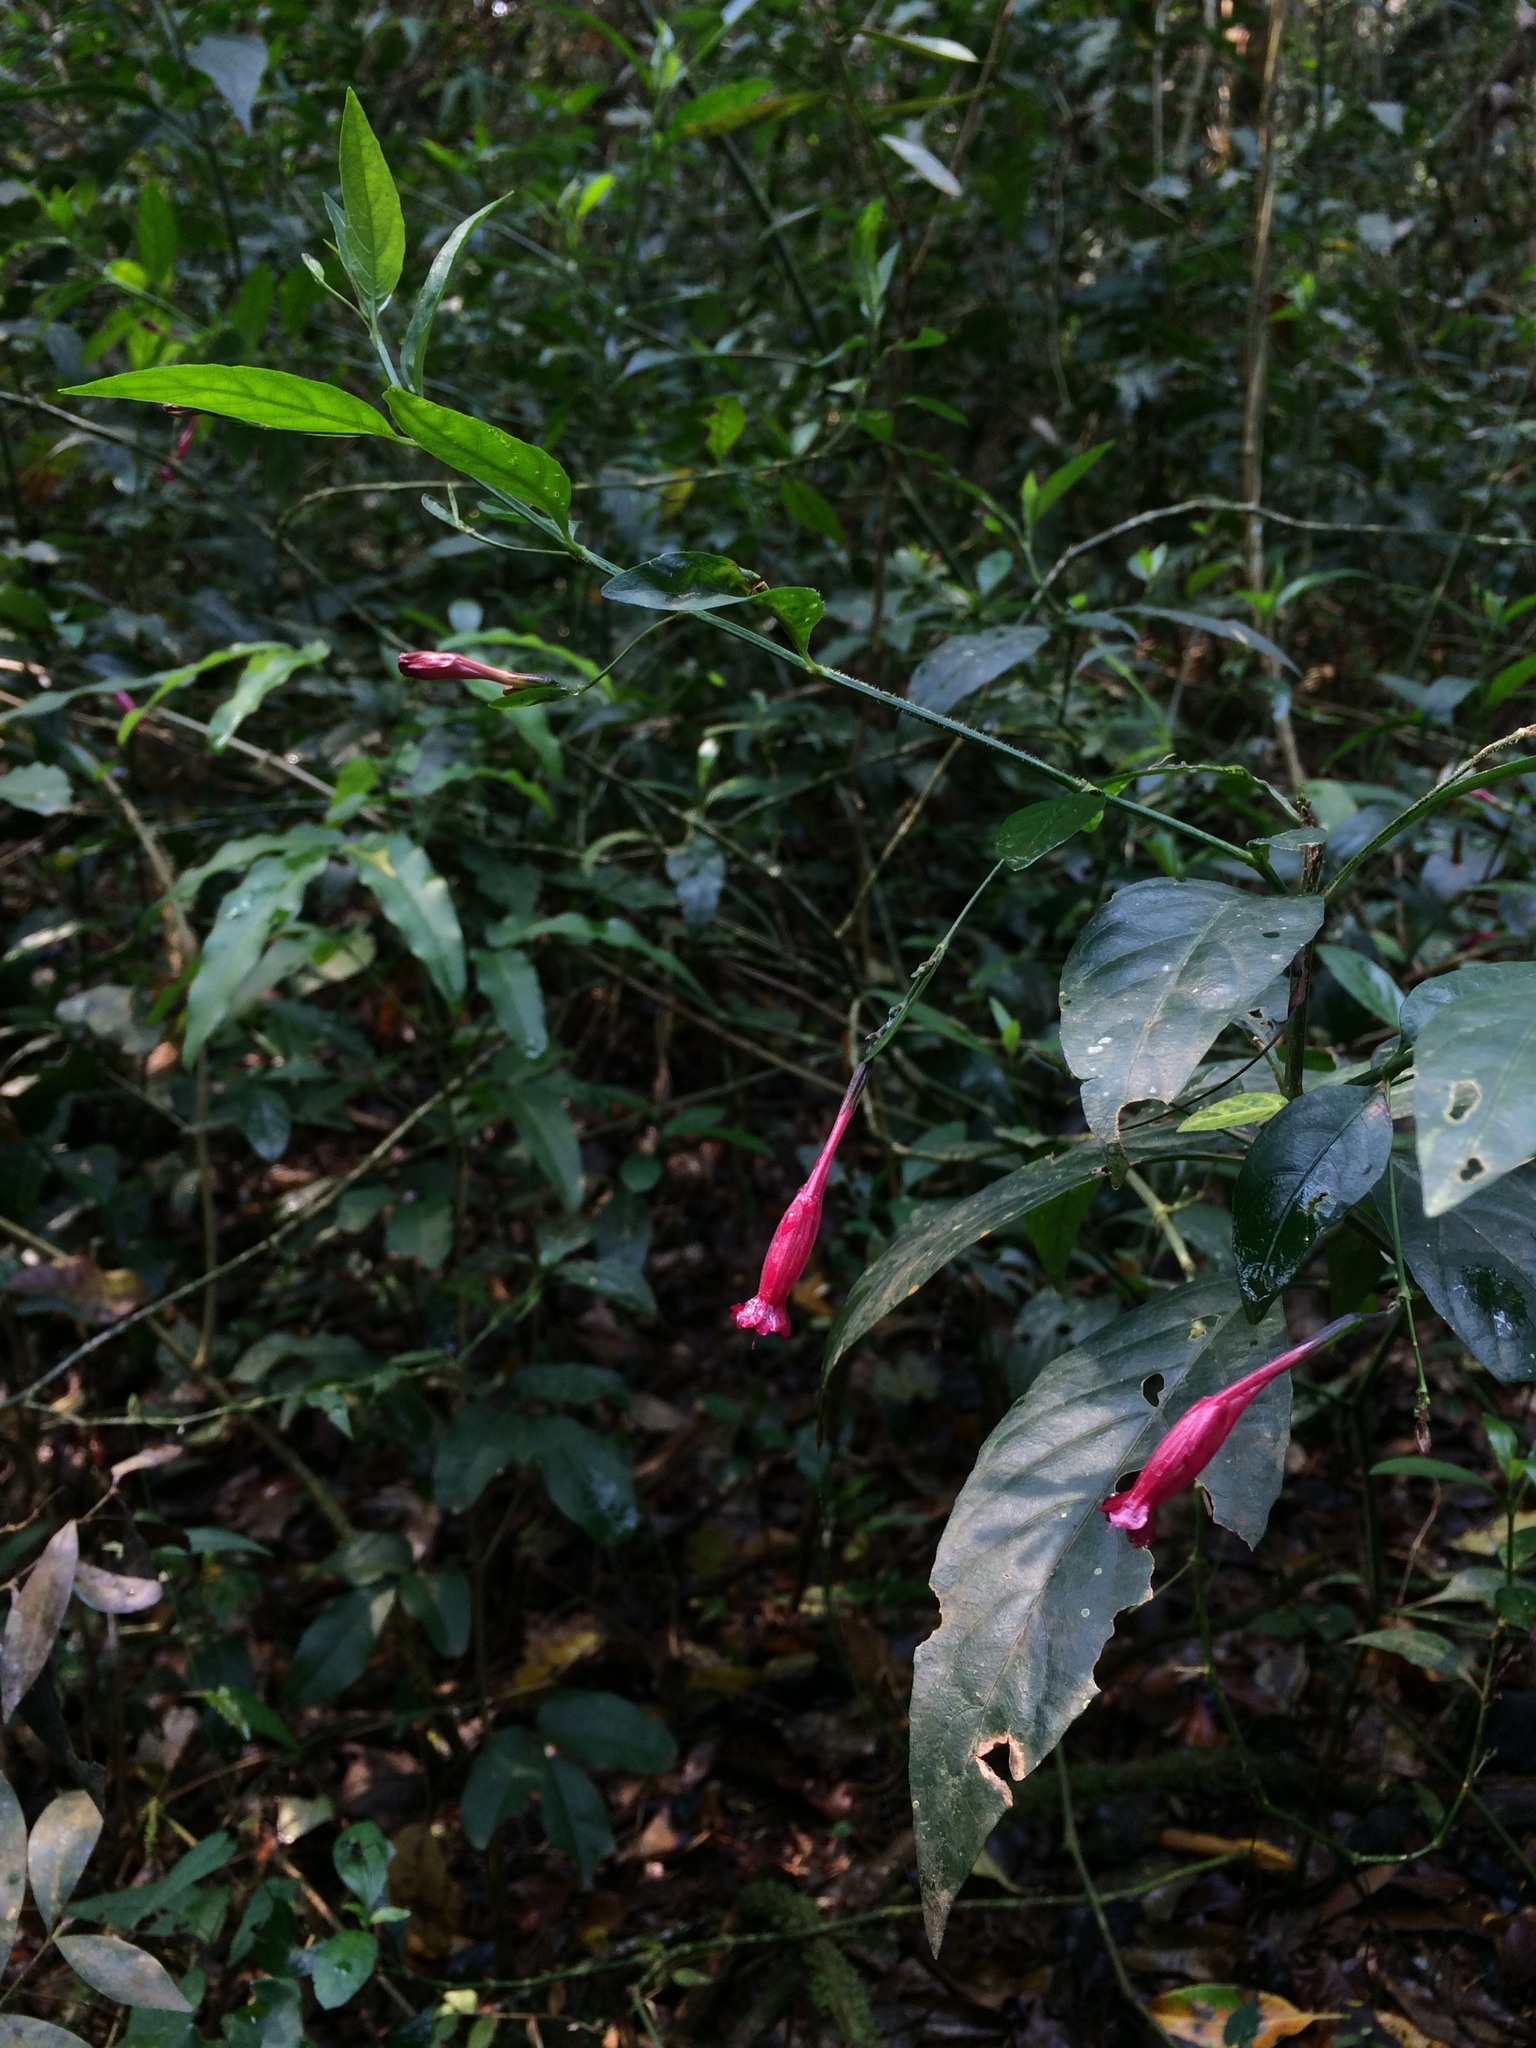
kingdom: Plantae
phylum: Tracheophyta
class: Magnoliopsida
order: Lamiales
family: Acanthaceae
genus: Ruellia
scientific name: Ruellia angustiflora
